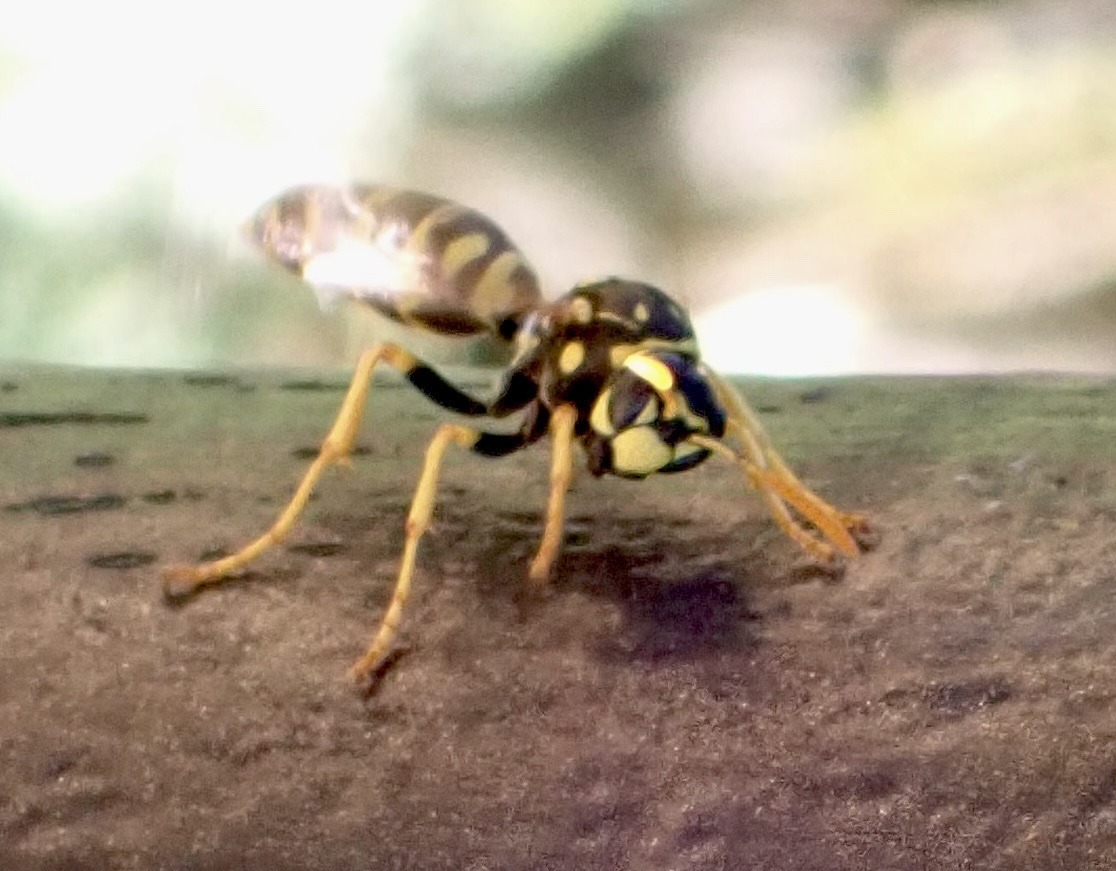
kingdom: Animalia
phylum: Arthropoda
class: Insecta
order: Hymenoptera
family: Eumenidae
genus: Polistes
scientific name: Polistes dominula
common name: Paper wasp
